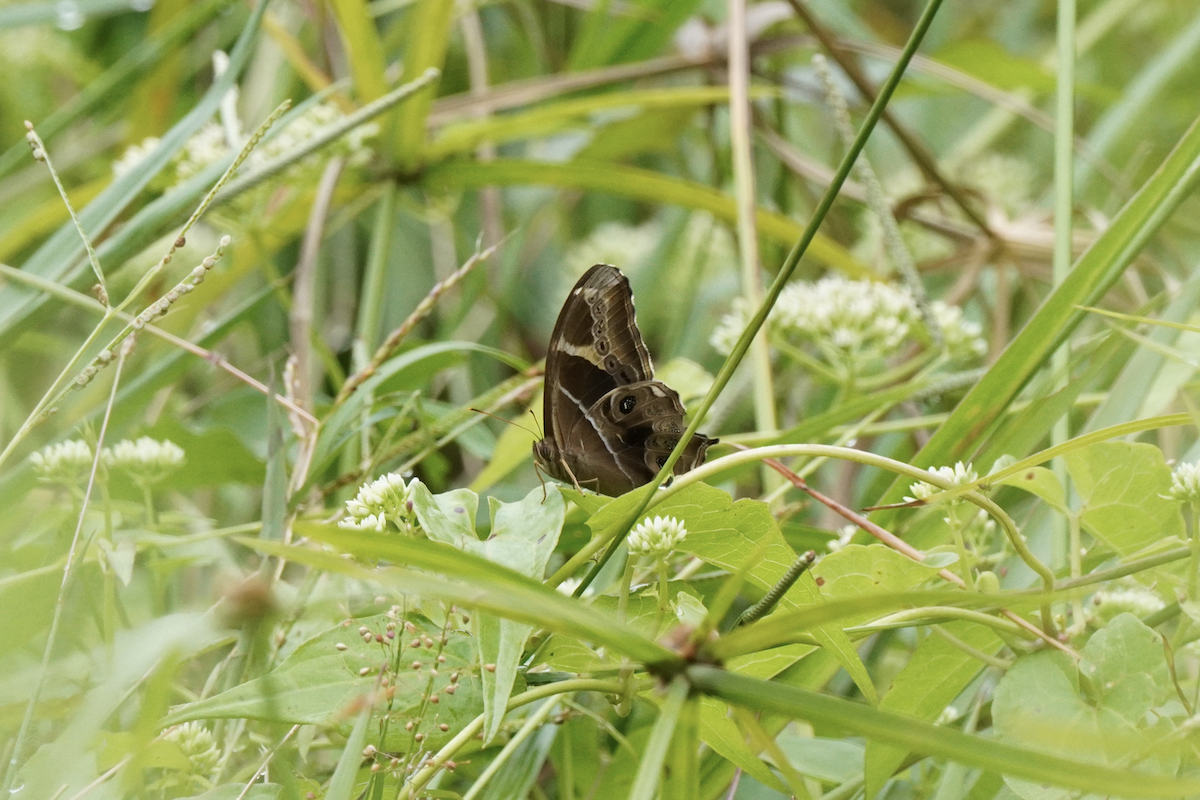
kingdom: Animalia
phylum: Arthropoda
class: Insecta
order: Lepidoptera
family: Nymphalidae
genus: Lethe
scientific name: Lethe europa
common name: Bamboo treebrown
